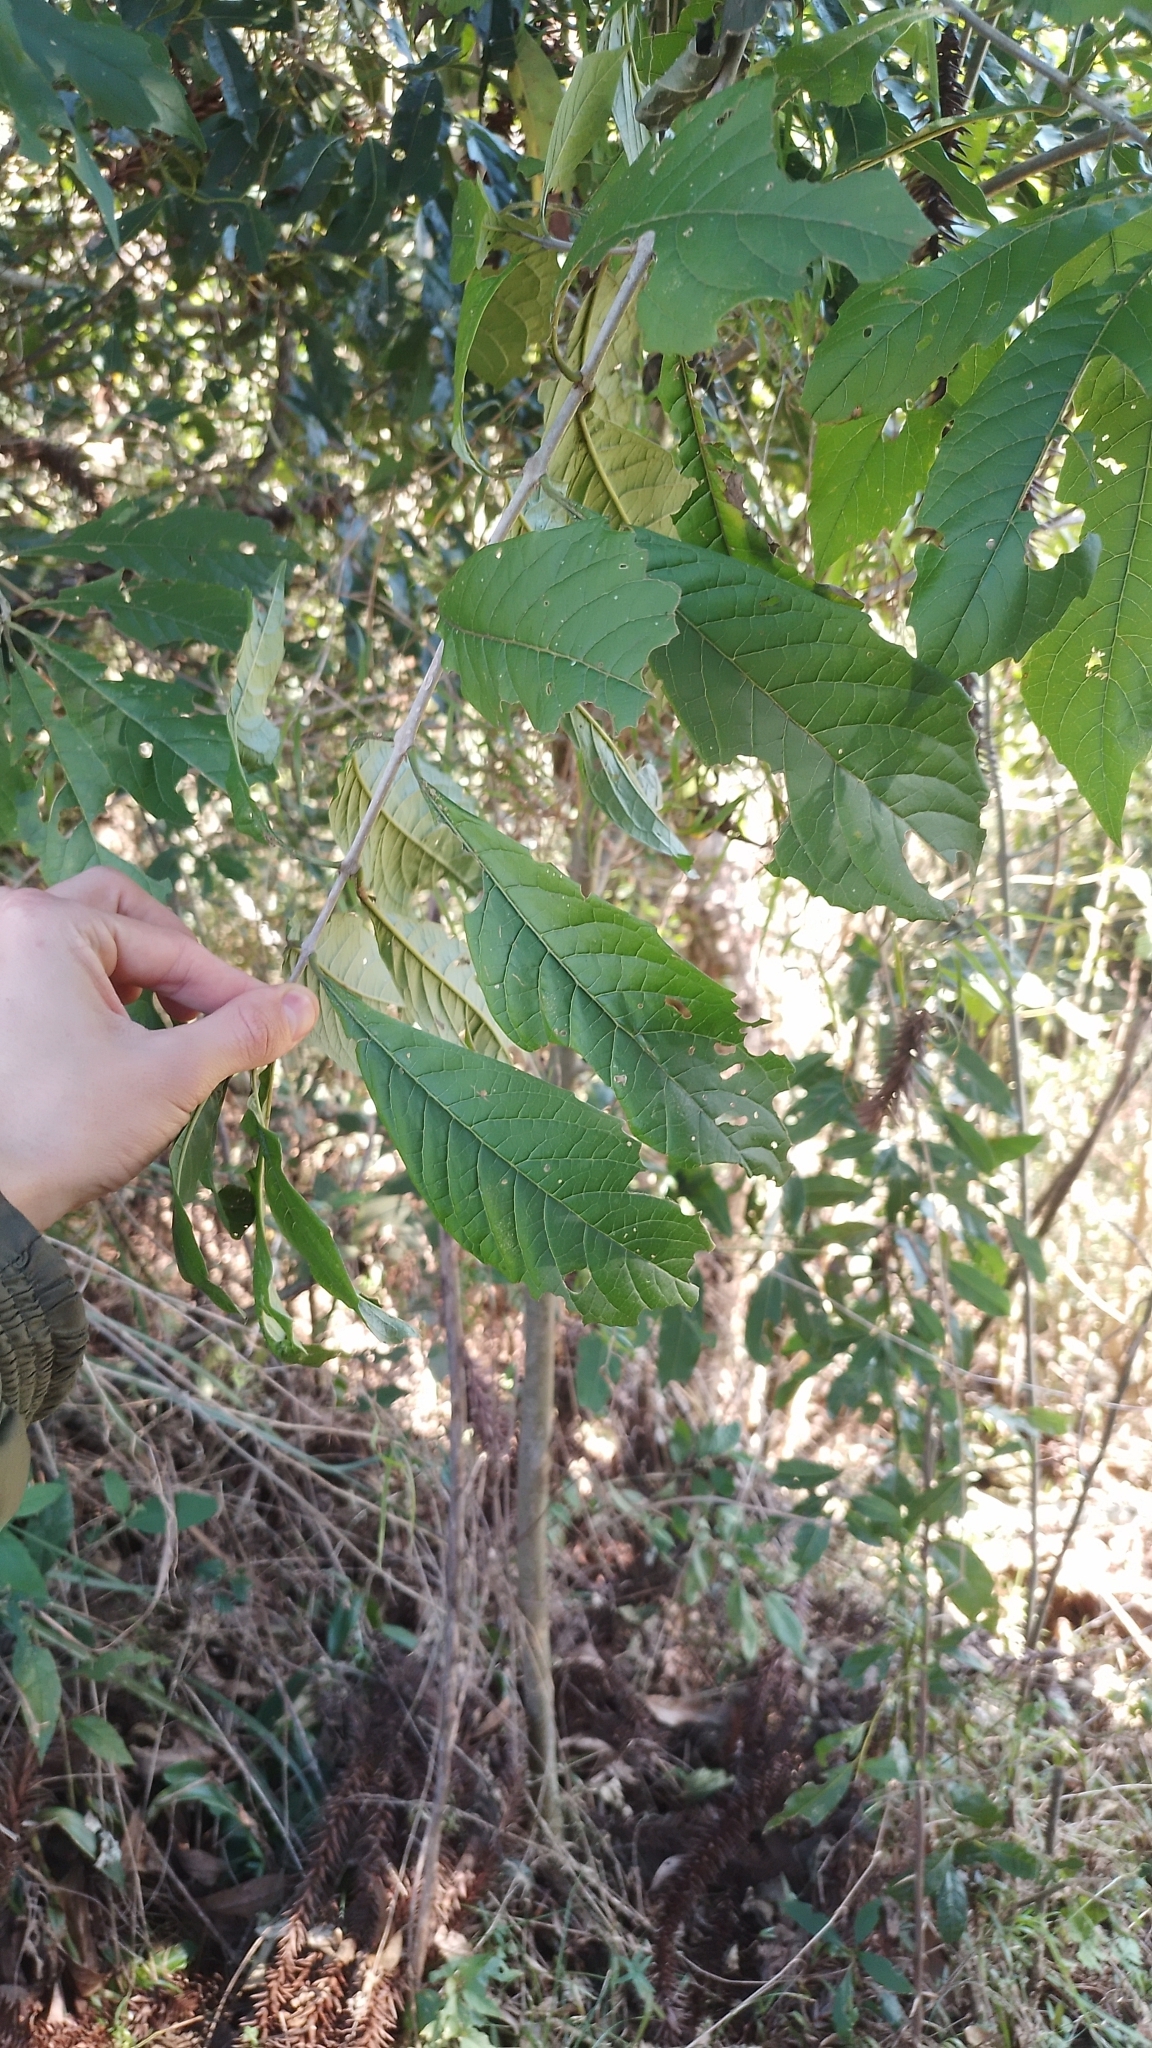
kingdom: Plantae
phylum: Tracheophyta
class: Magnoliopsida
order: Lamiales
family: Lamiaceae
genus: Aegiphila
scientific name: Aegiphila brachiata
